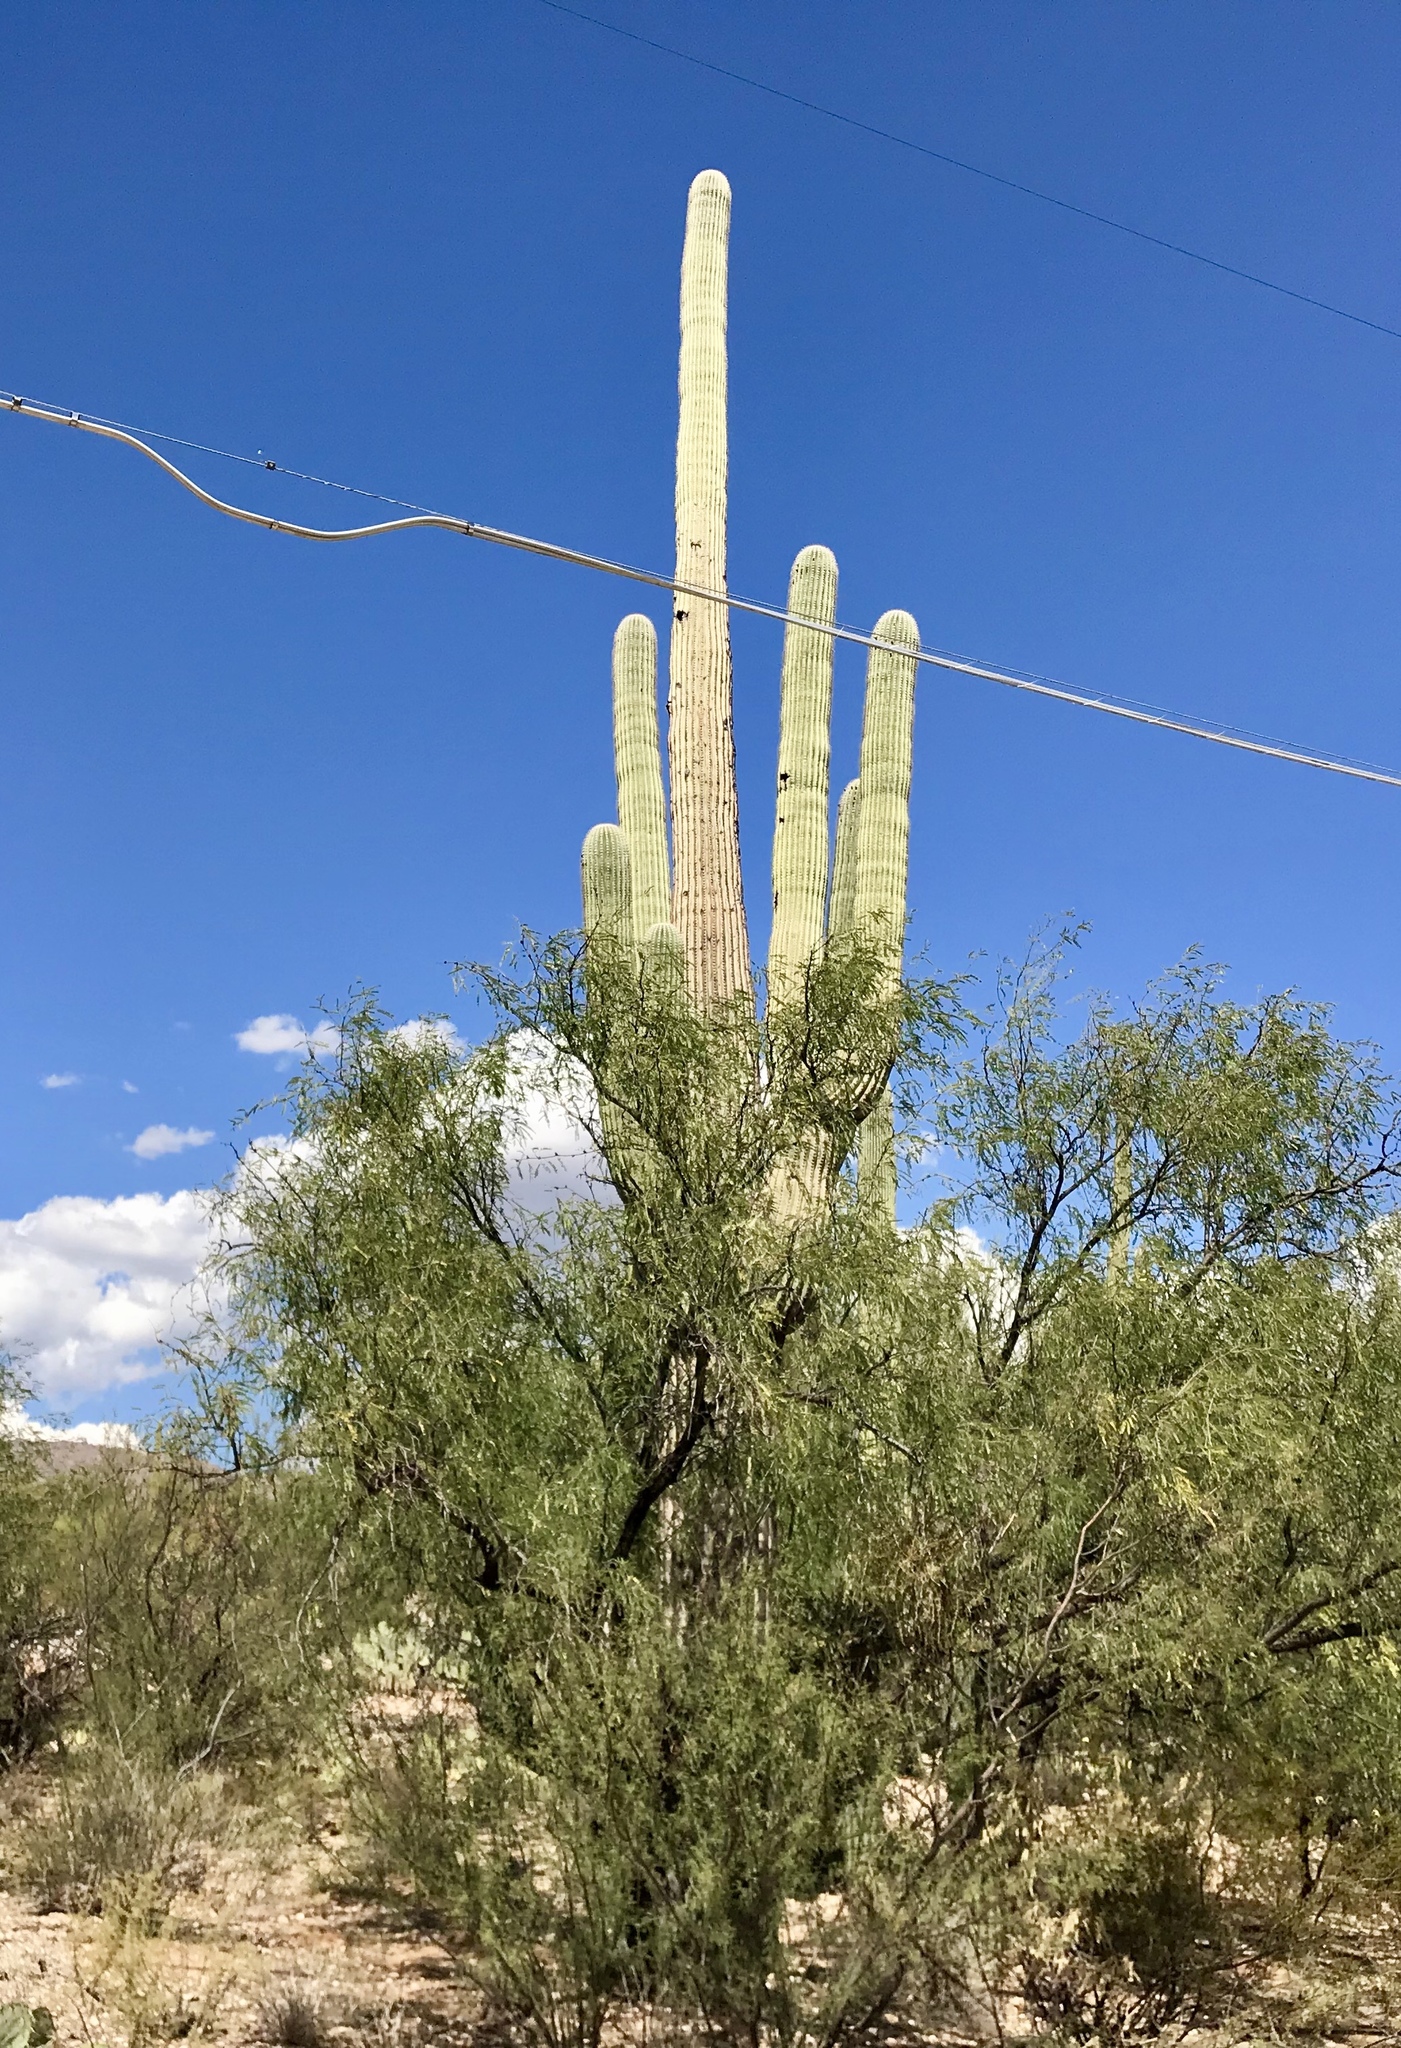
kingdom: Plantae
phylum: Tracheophyta
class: Magnoliopsida
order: Caryophyllales
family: Cactaceae
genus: Carnegiea
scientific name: Carnegiea gigantea
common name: Saguaro
